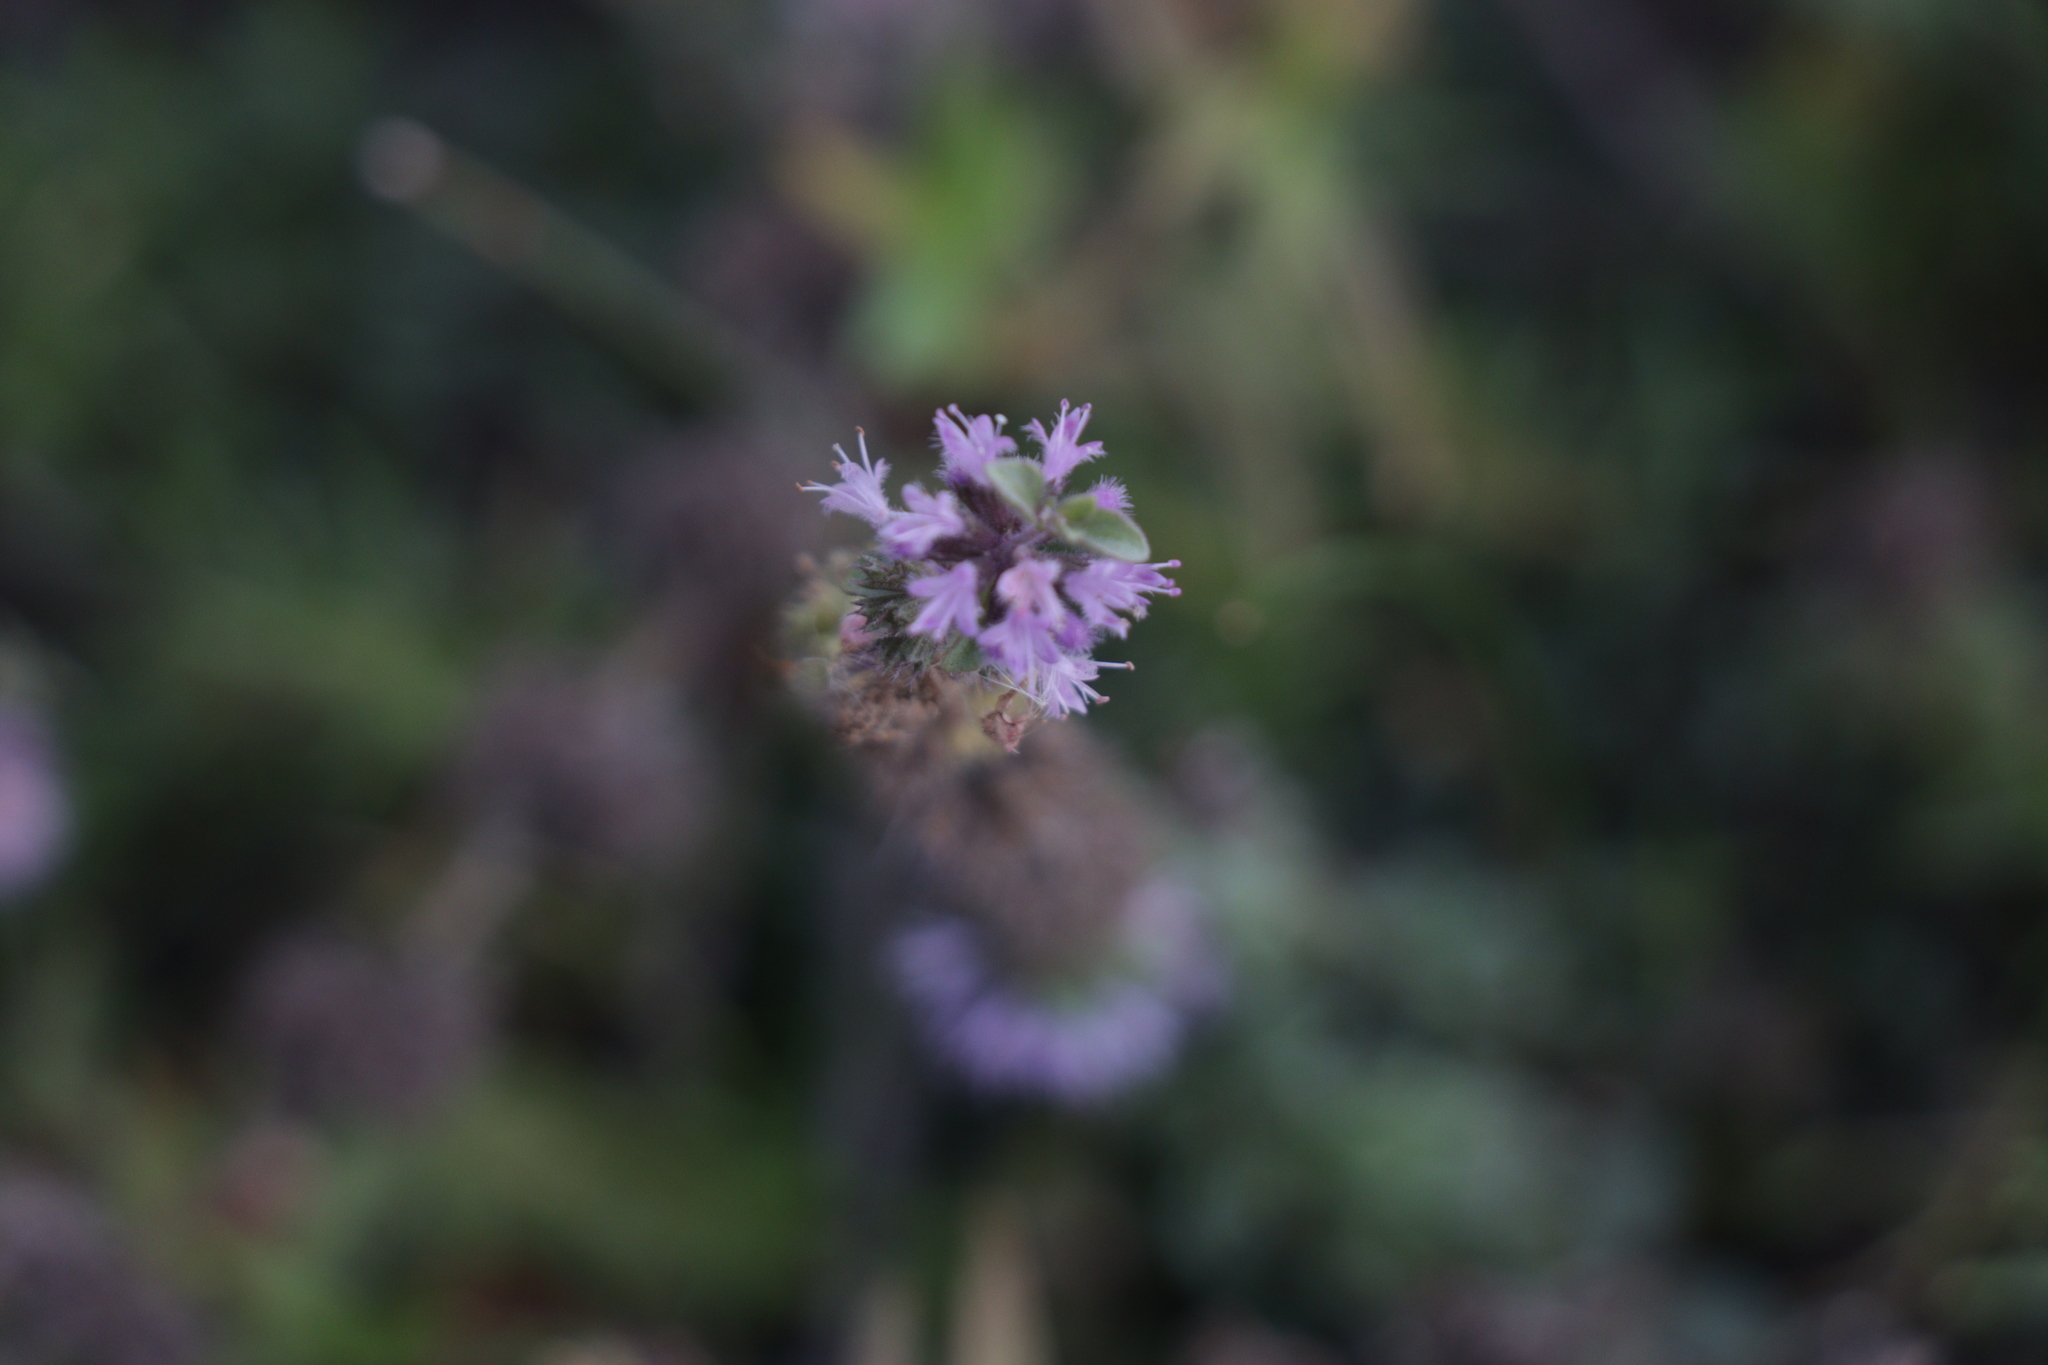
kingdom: Plantae
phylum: Tracheophyta
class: Magnoliopsida
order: Lamiales
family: Lamiaceae
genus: Mentha
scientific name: Mentha pulegium
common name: Pennyroyal
